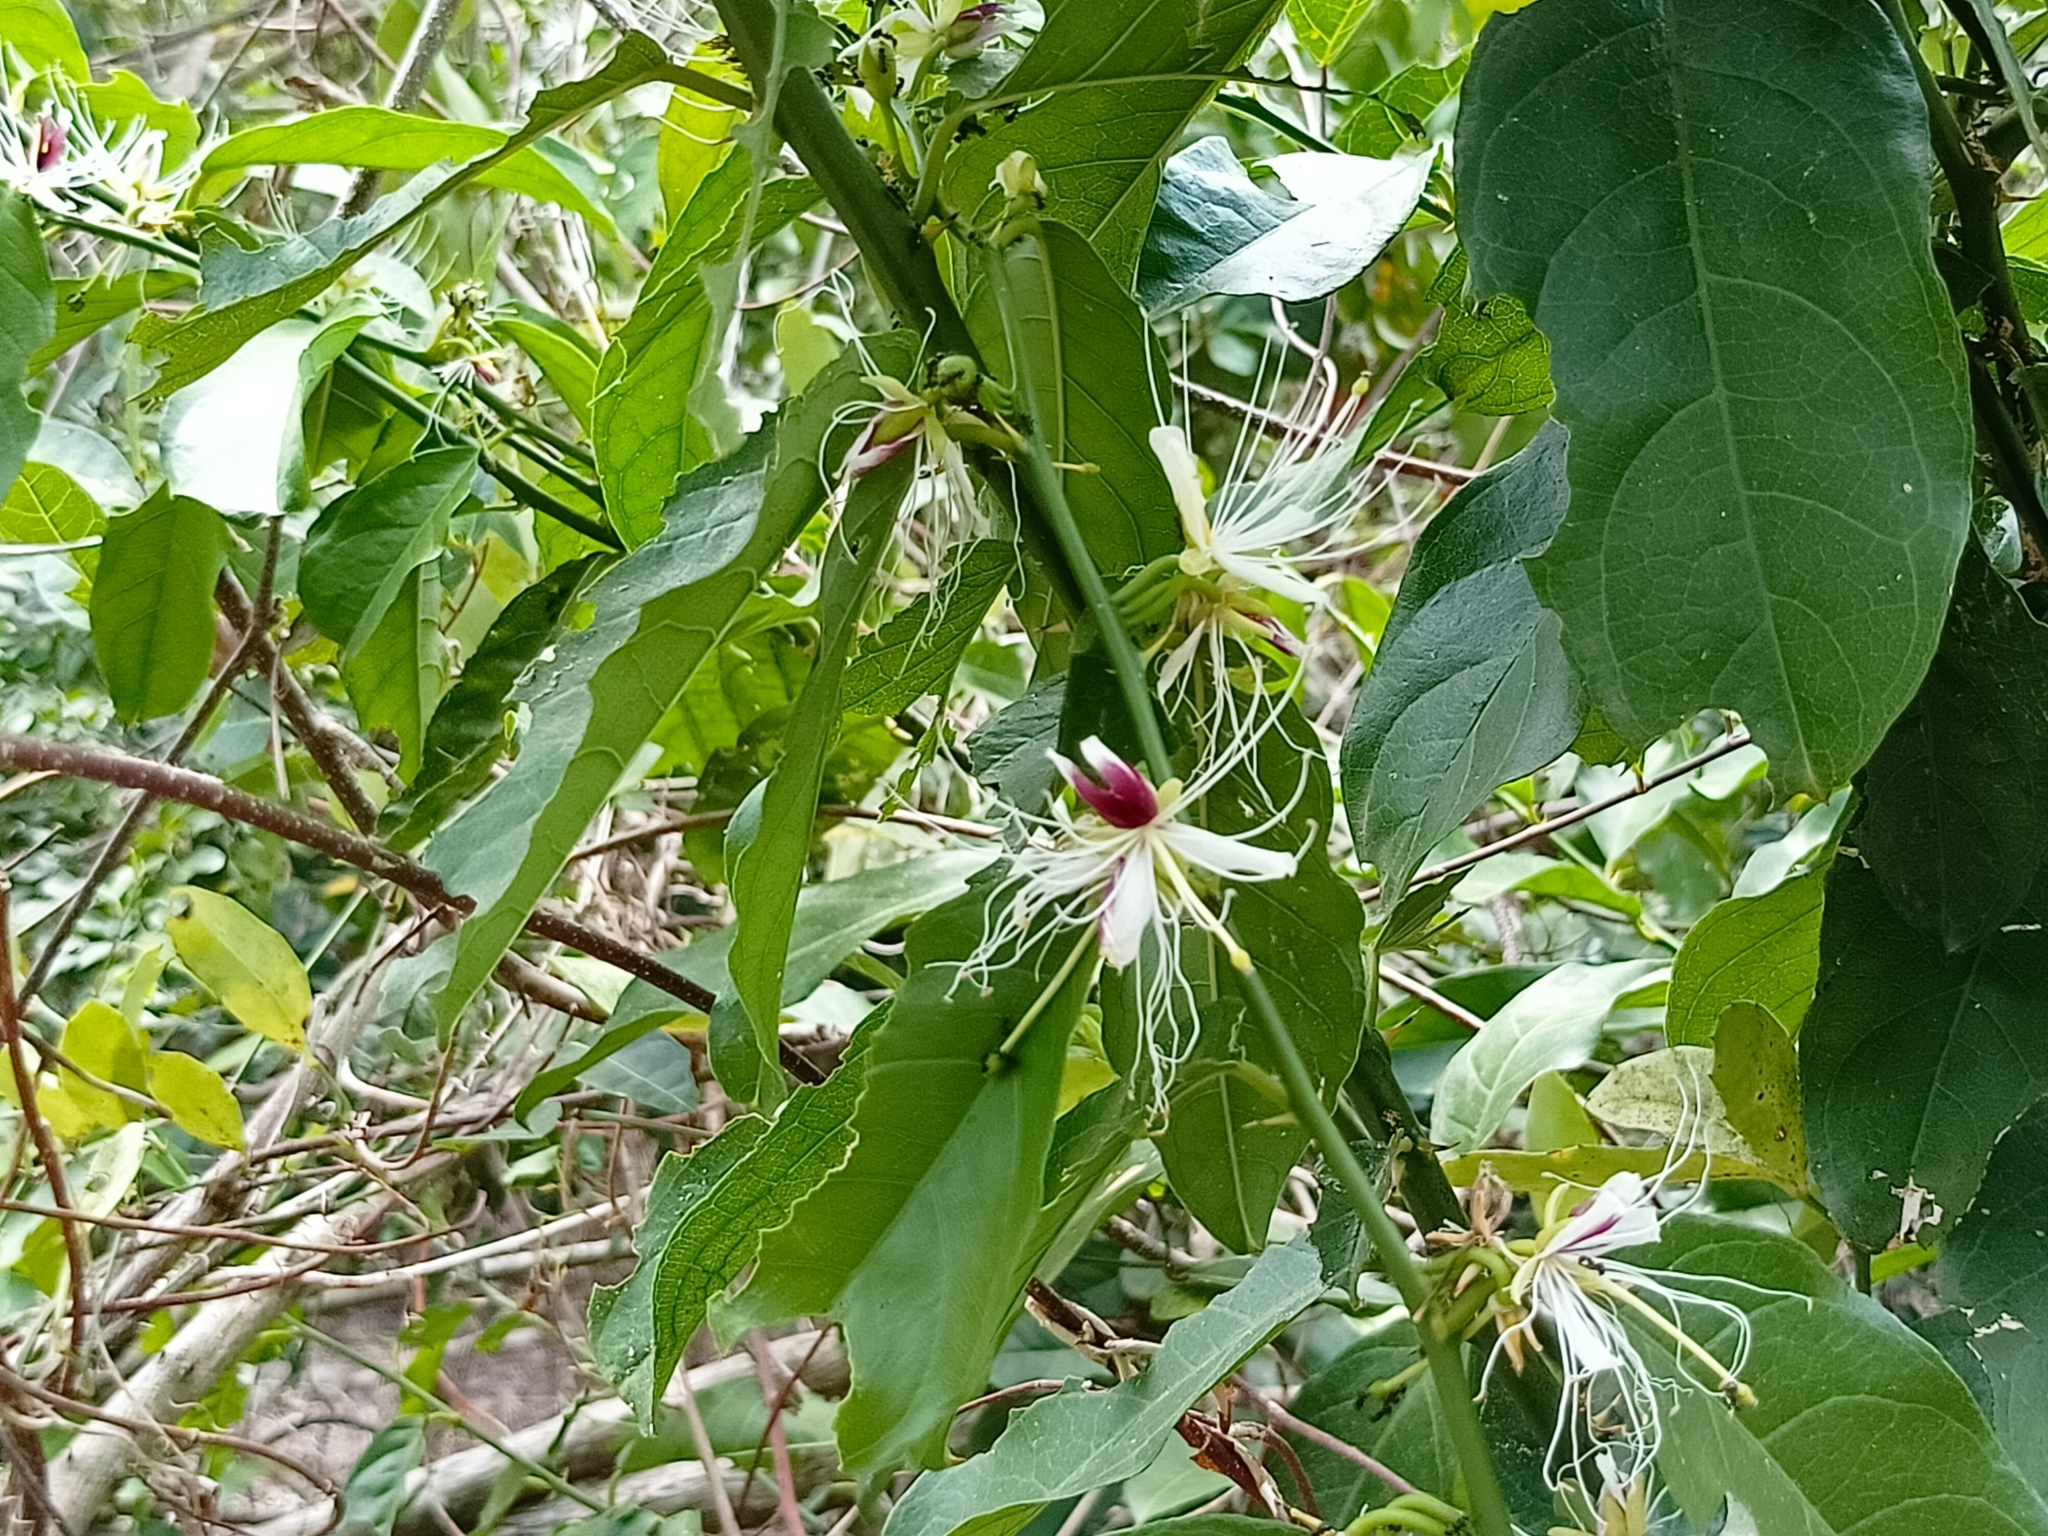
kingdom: Plantae
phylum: Tracheophyta
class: Magnoliopsida
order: Brassicales
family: Capparaceae
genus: Capparis
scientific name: Capparis micracantha
